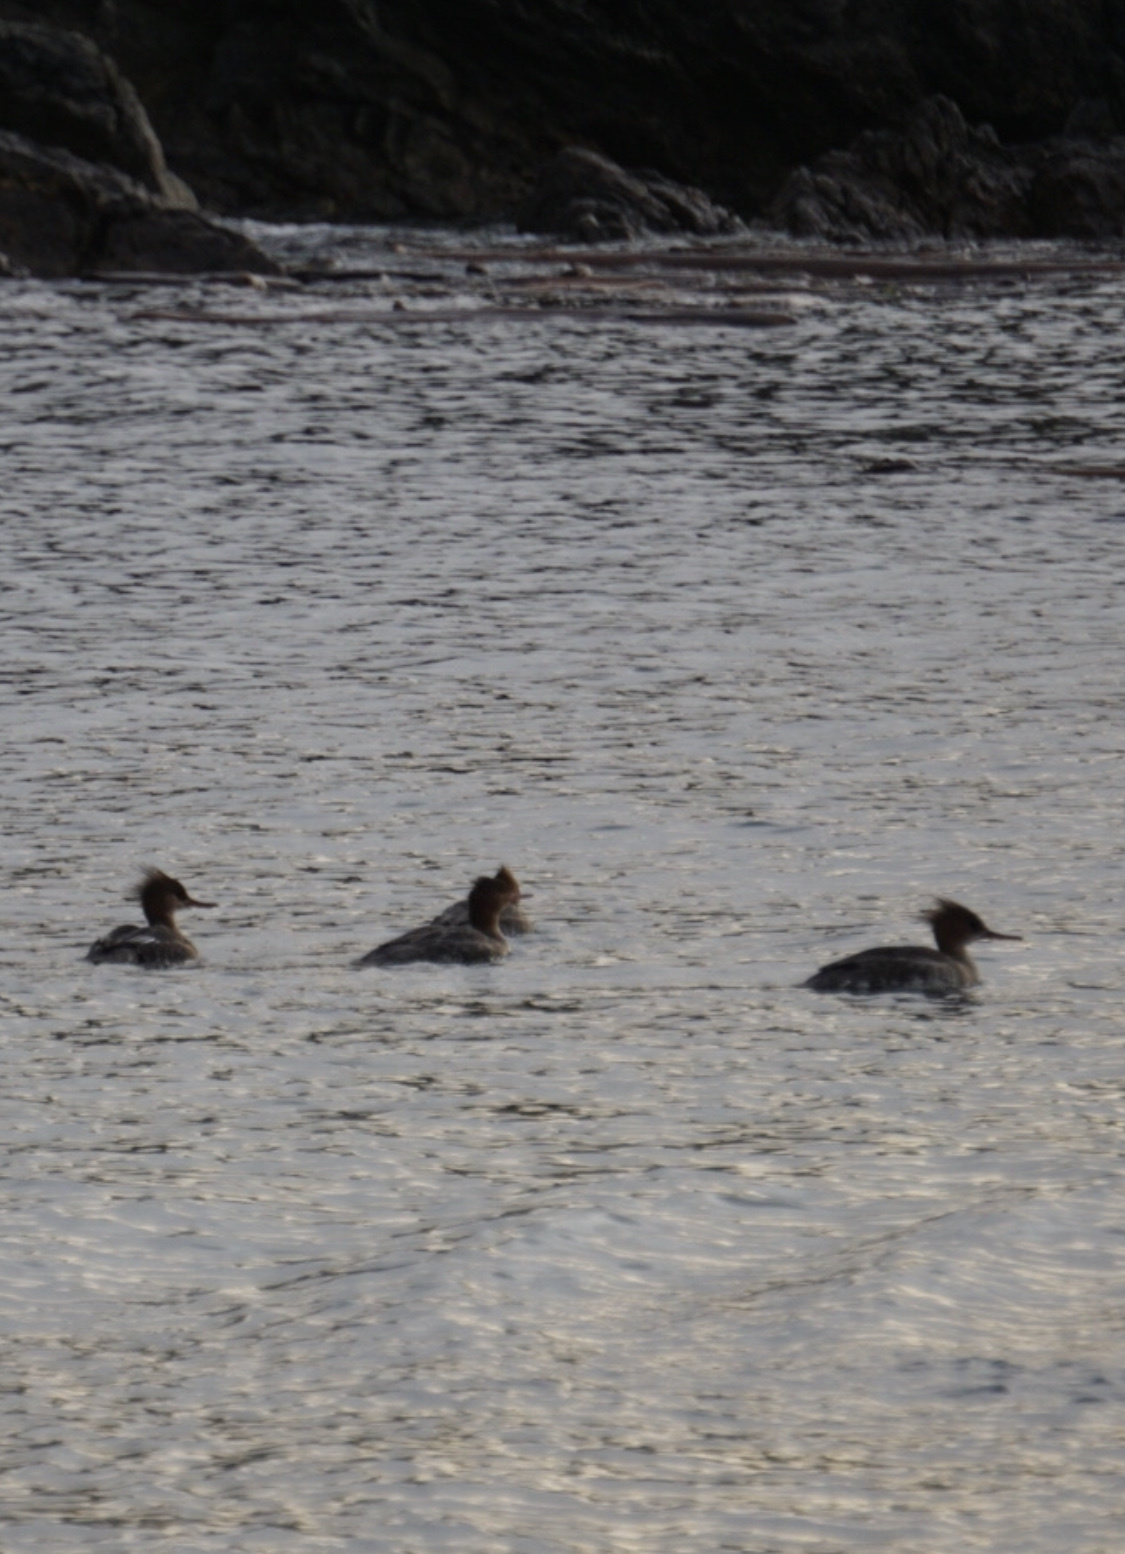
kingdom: Animalia
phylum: Chordata
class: Aves
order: Anseriformes
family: Anatidae
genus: Mergus
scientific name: Mergus serrator
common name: Red-breasted merganser
